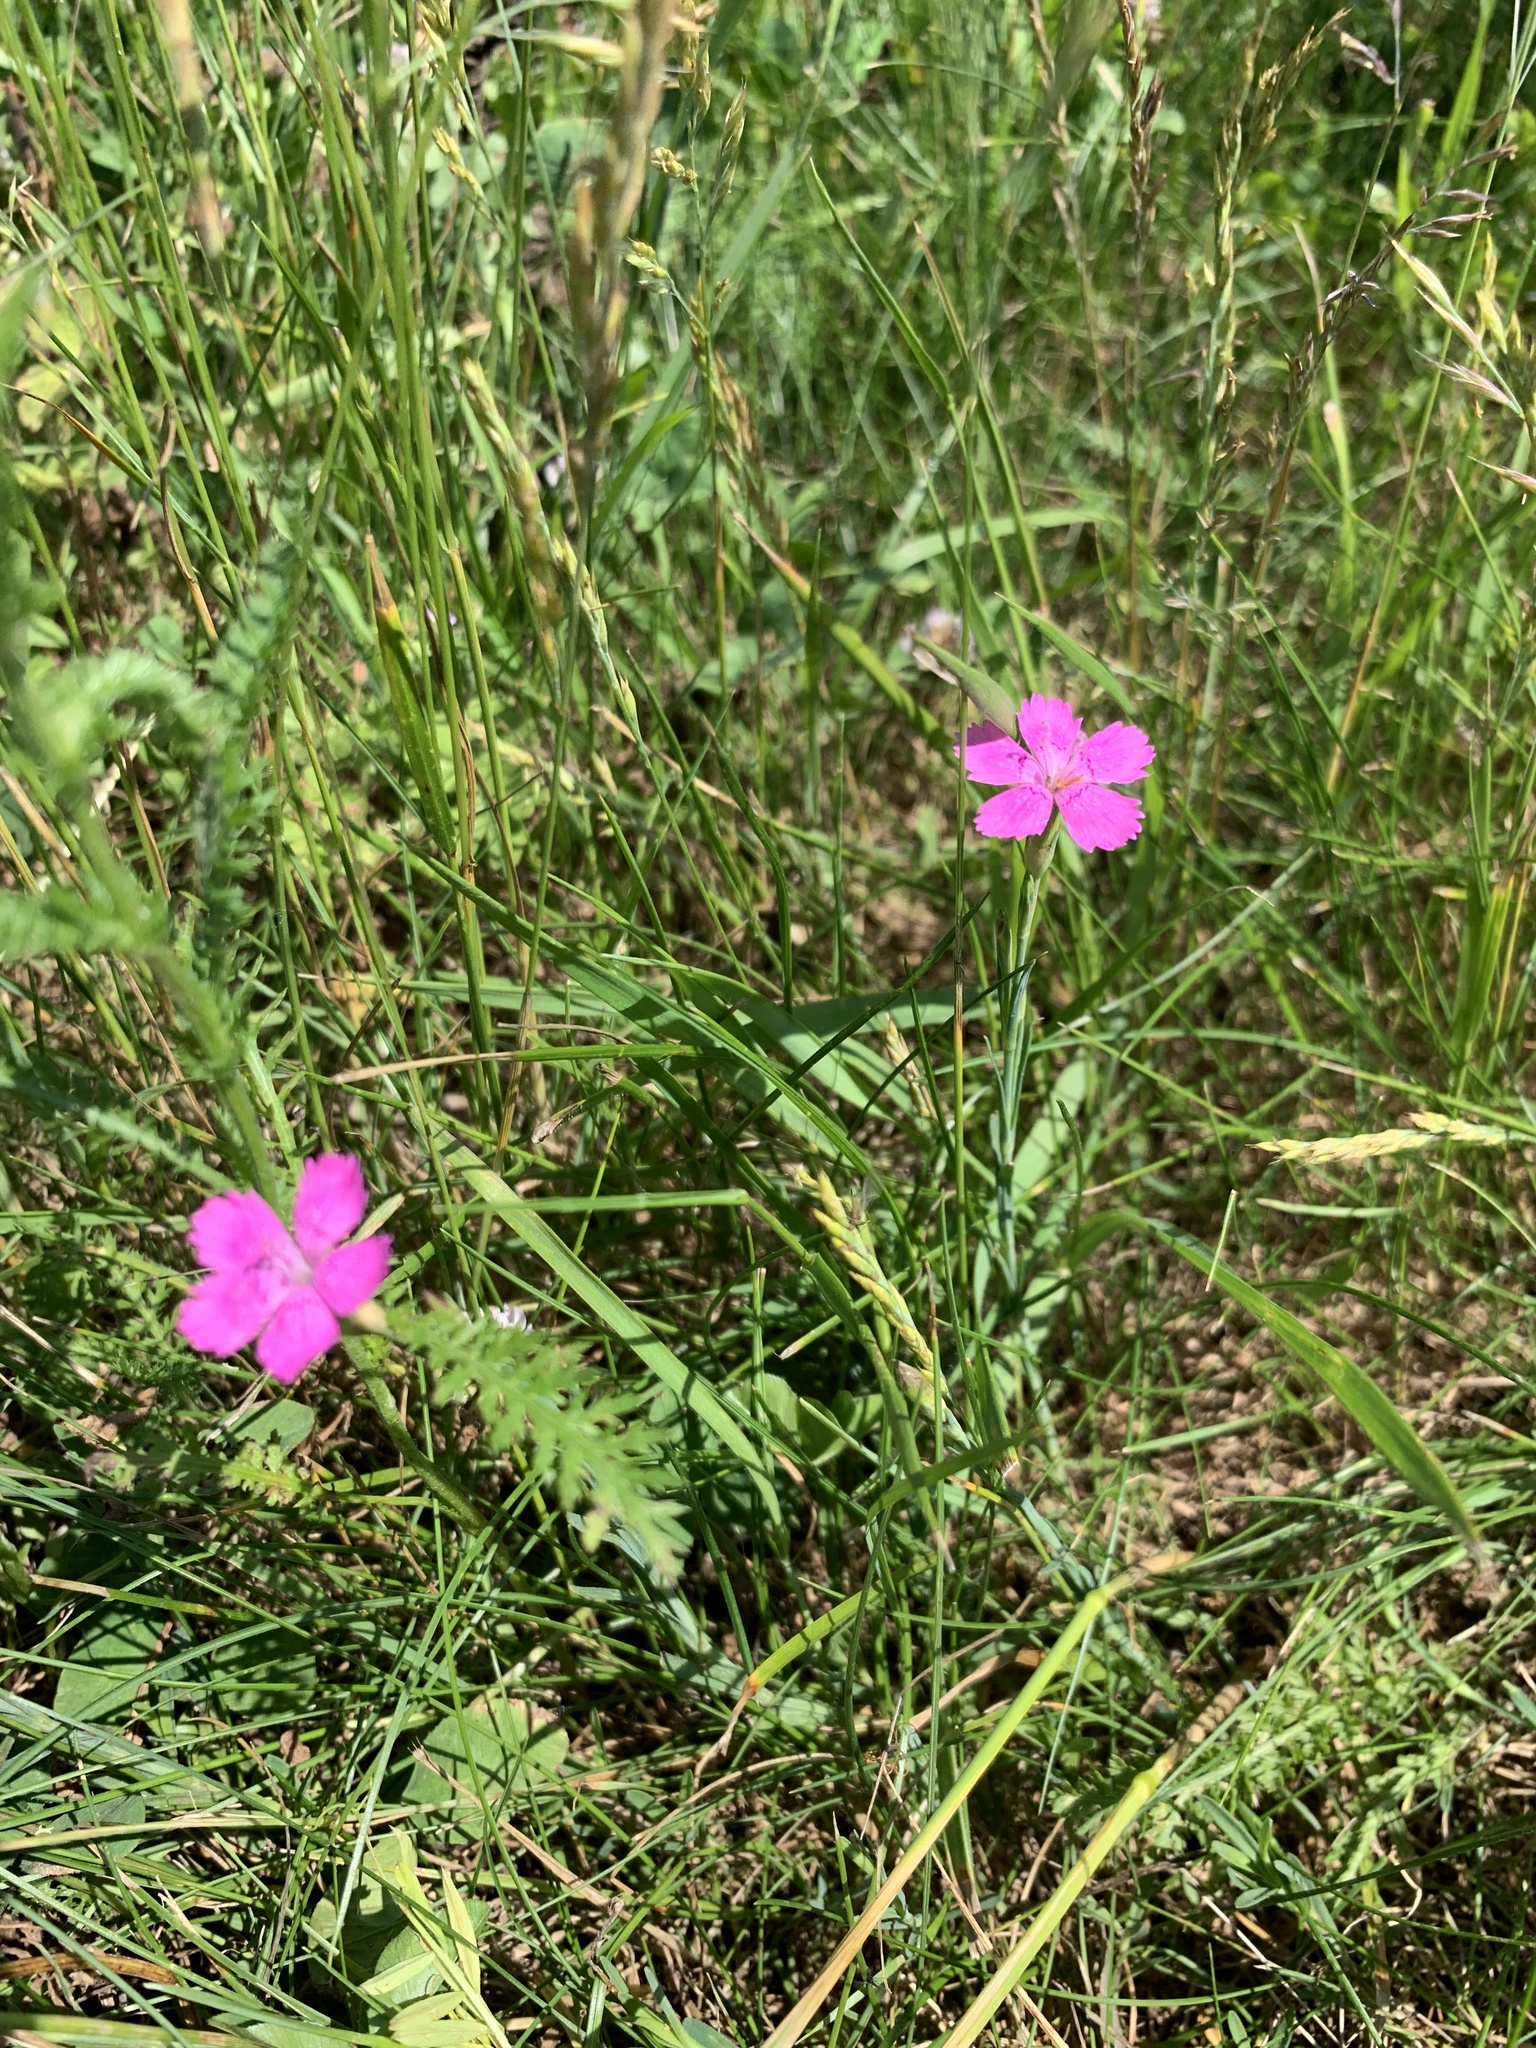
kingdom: Plantae
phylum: Tracheophyta
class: Magnoliopsida
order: Caryophyllales
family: Caryophyllaceae
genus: Dianthus
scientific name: Dianthus deltoides
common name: Maiden pink
